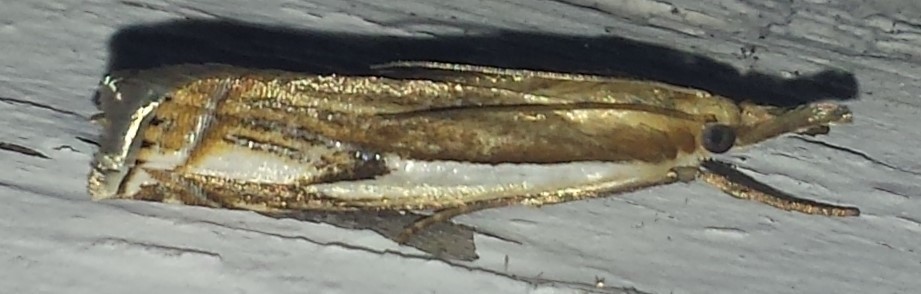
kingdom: Animalia
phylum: Arthropoda
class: Insecta
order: Lepidoptera
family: Crambidae
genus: Crambus
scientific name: Crambus agitatellus
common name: Double-banded grass-veneer
